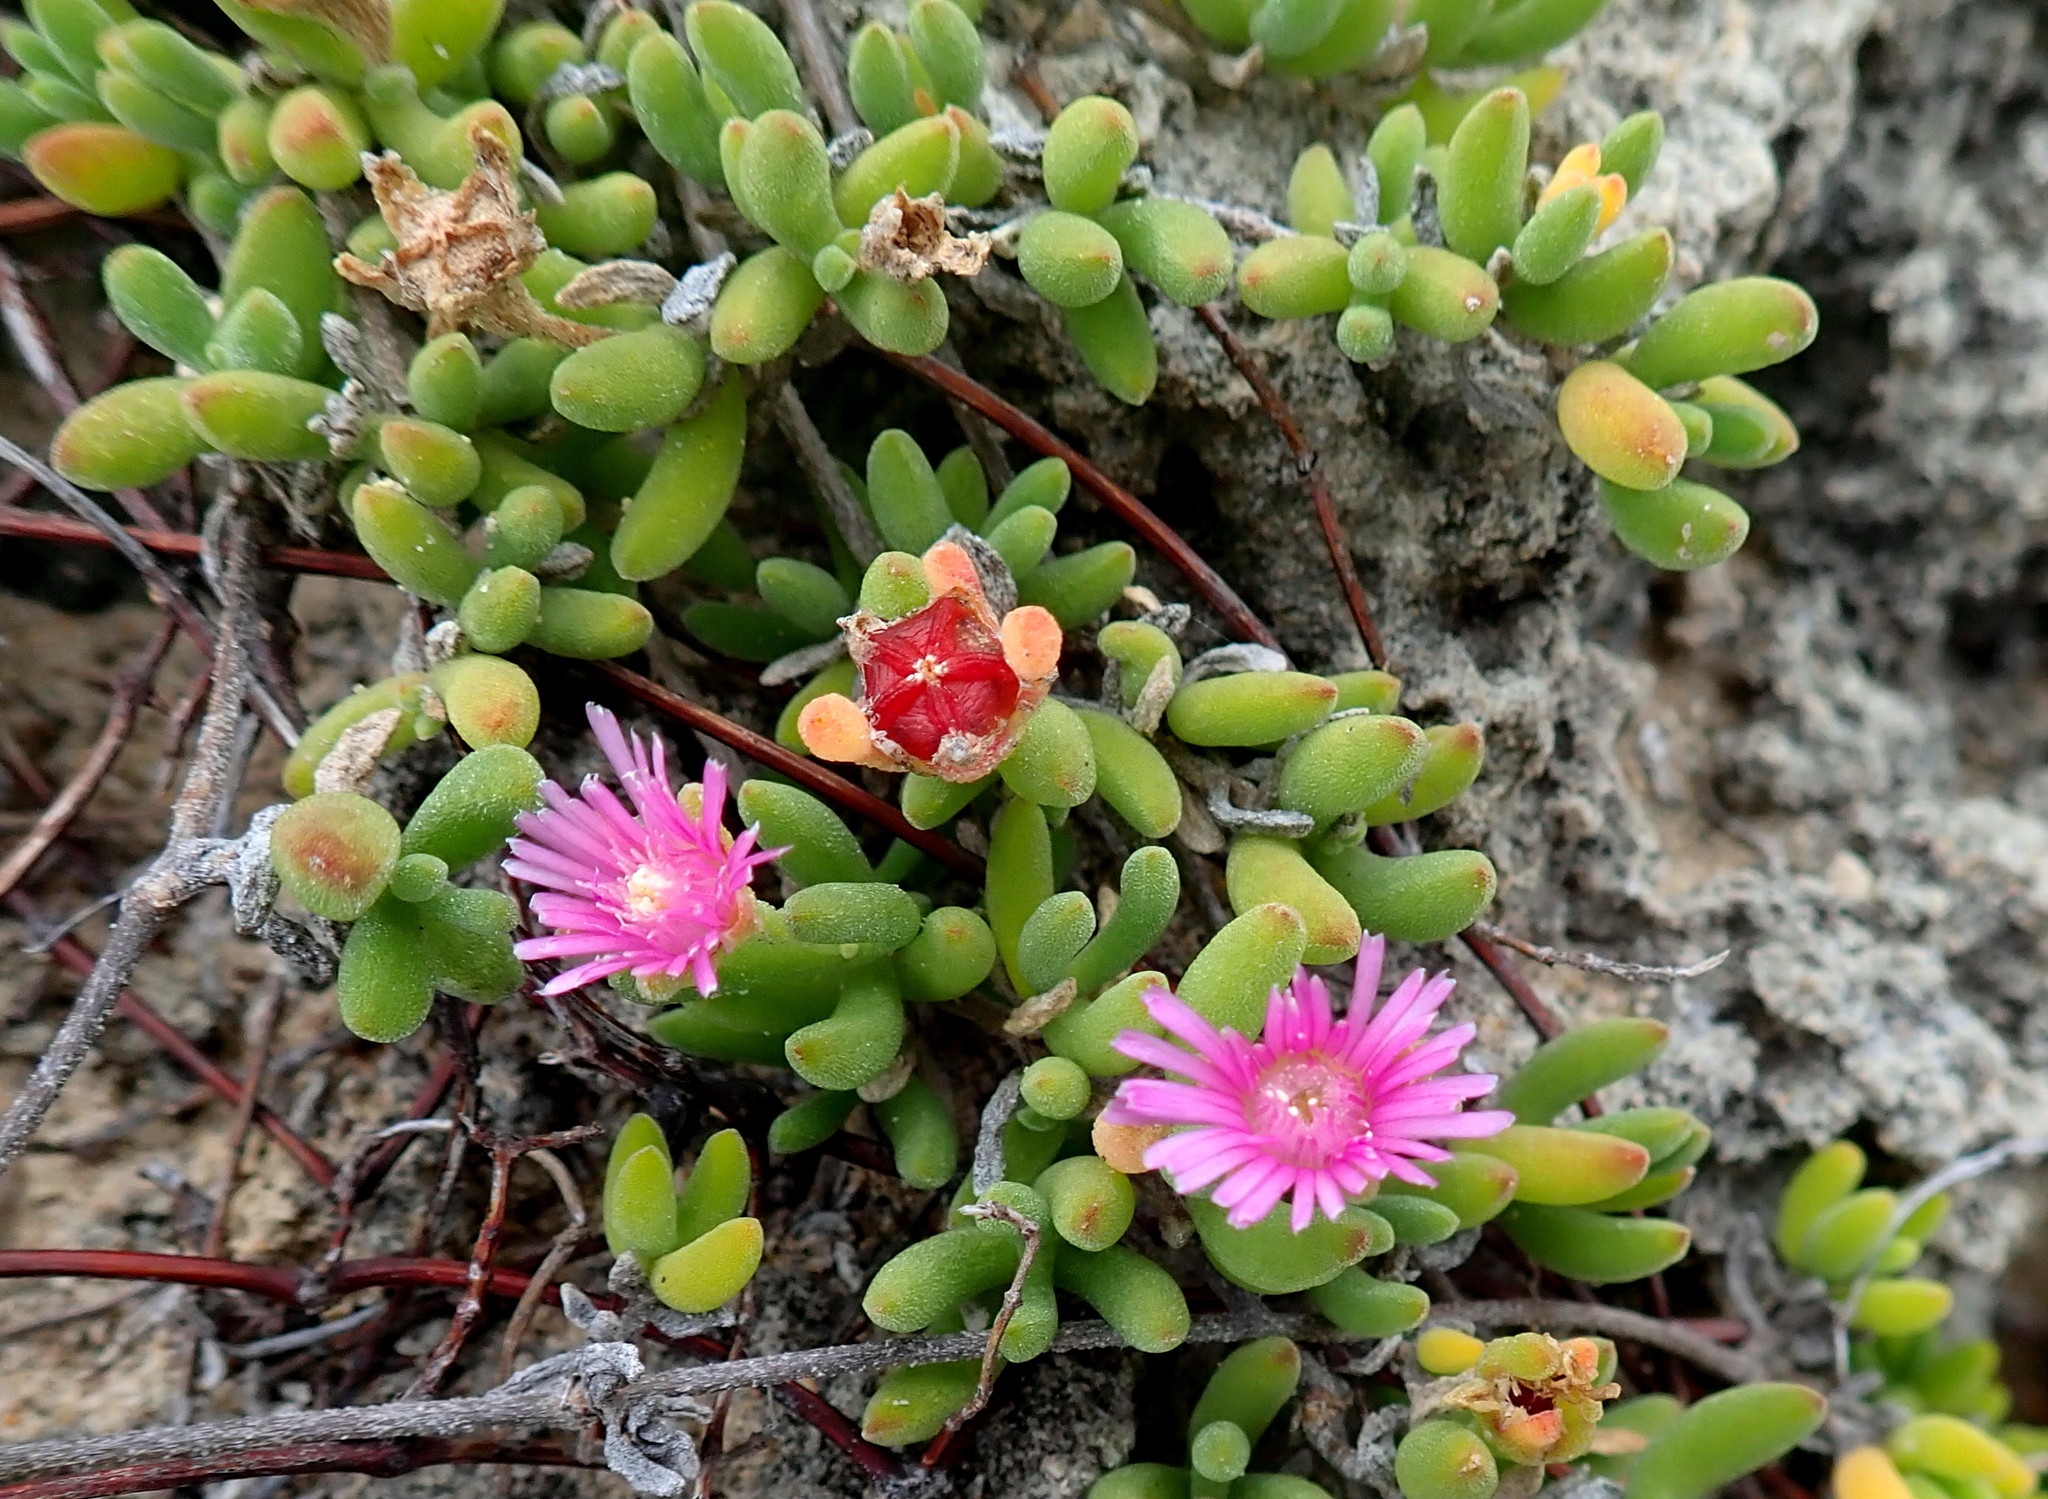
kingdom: Plantae
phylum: Tracheophyta
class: Magnoliopsida
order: Caryophyllales
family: Aizoaceae
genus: Drosanthemum
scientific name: Drosanthemum candens
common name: Rodondo-creeper
